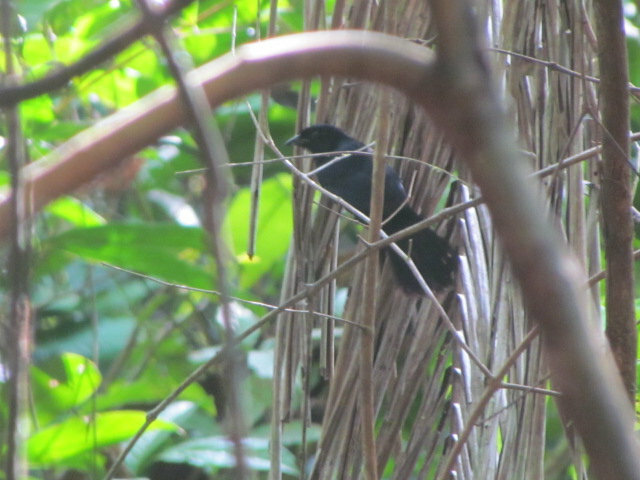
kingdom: Animalia
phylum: Chordata
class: Aves
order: Passeriformes
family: Icteridae
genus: Lampropsar
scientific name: Lampropsar tanagrinus
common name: Velvet-fronted grackle
